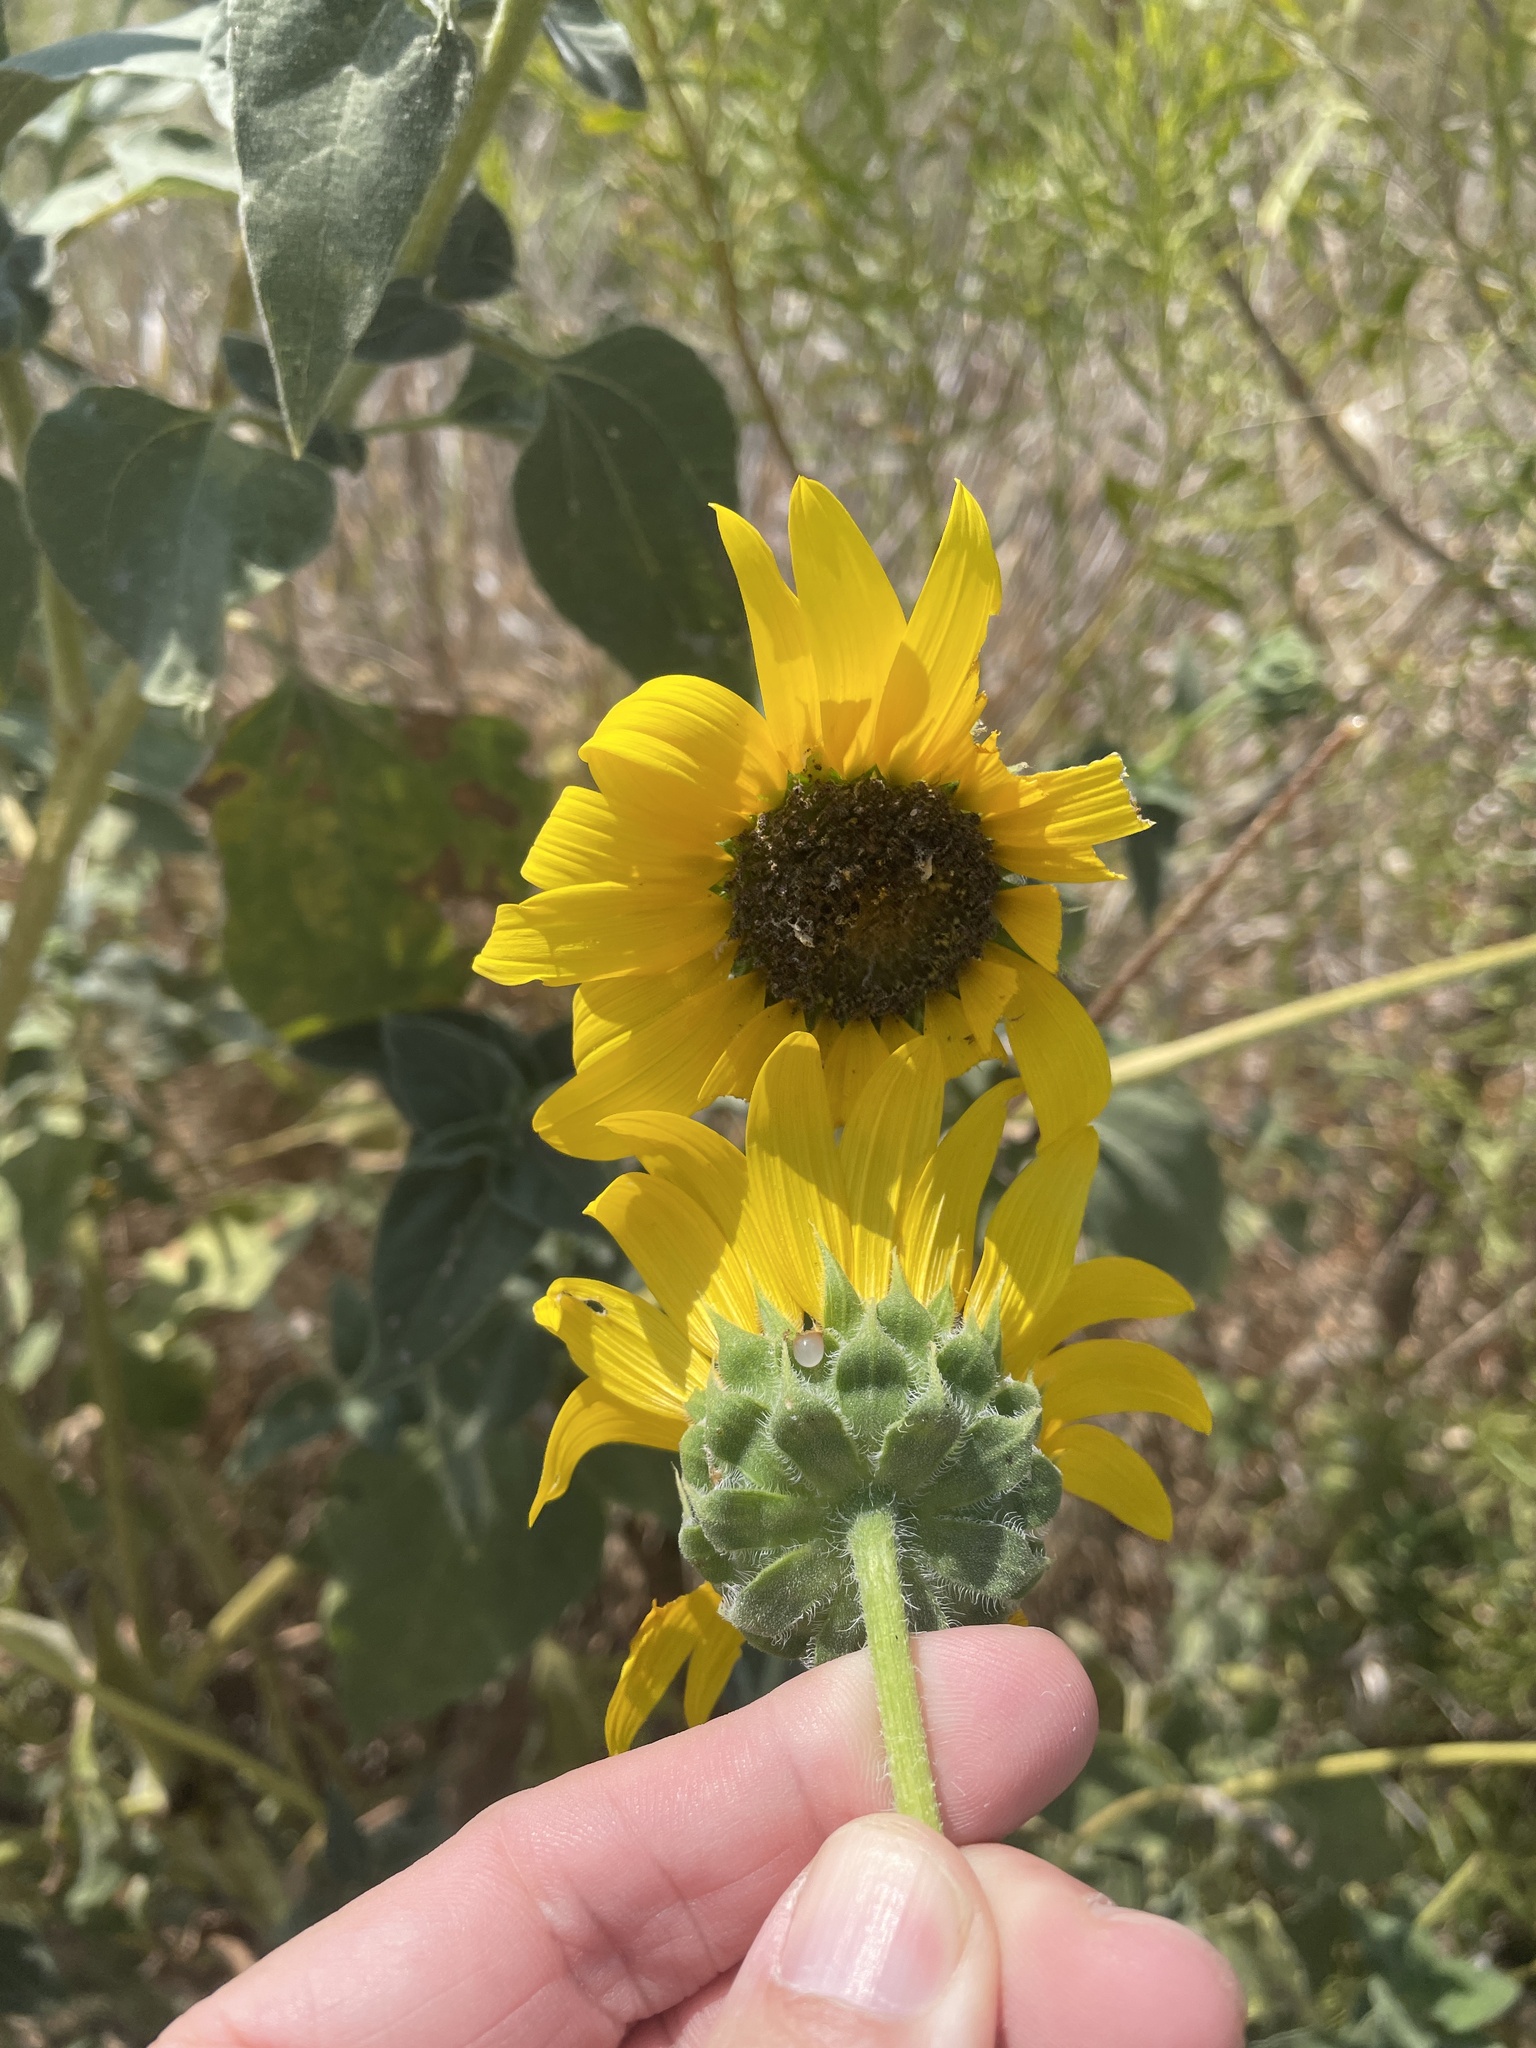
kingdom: Plantae
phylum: Tracheophyta
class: Magnoliopsida
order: Asterales
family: Asteraceae
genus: Helianthus
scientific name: Helianthus annuus
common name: Sunflower
